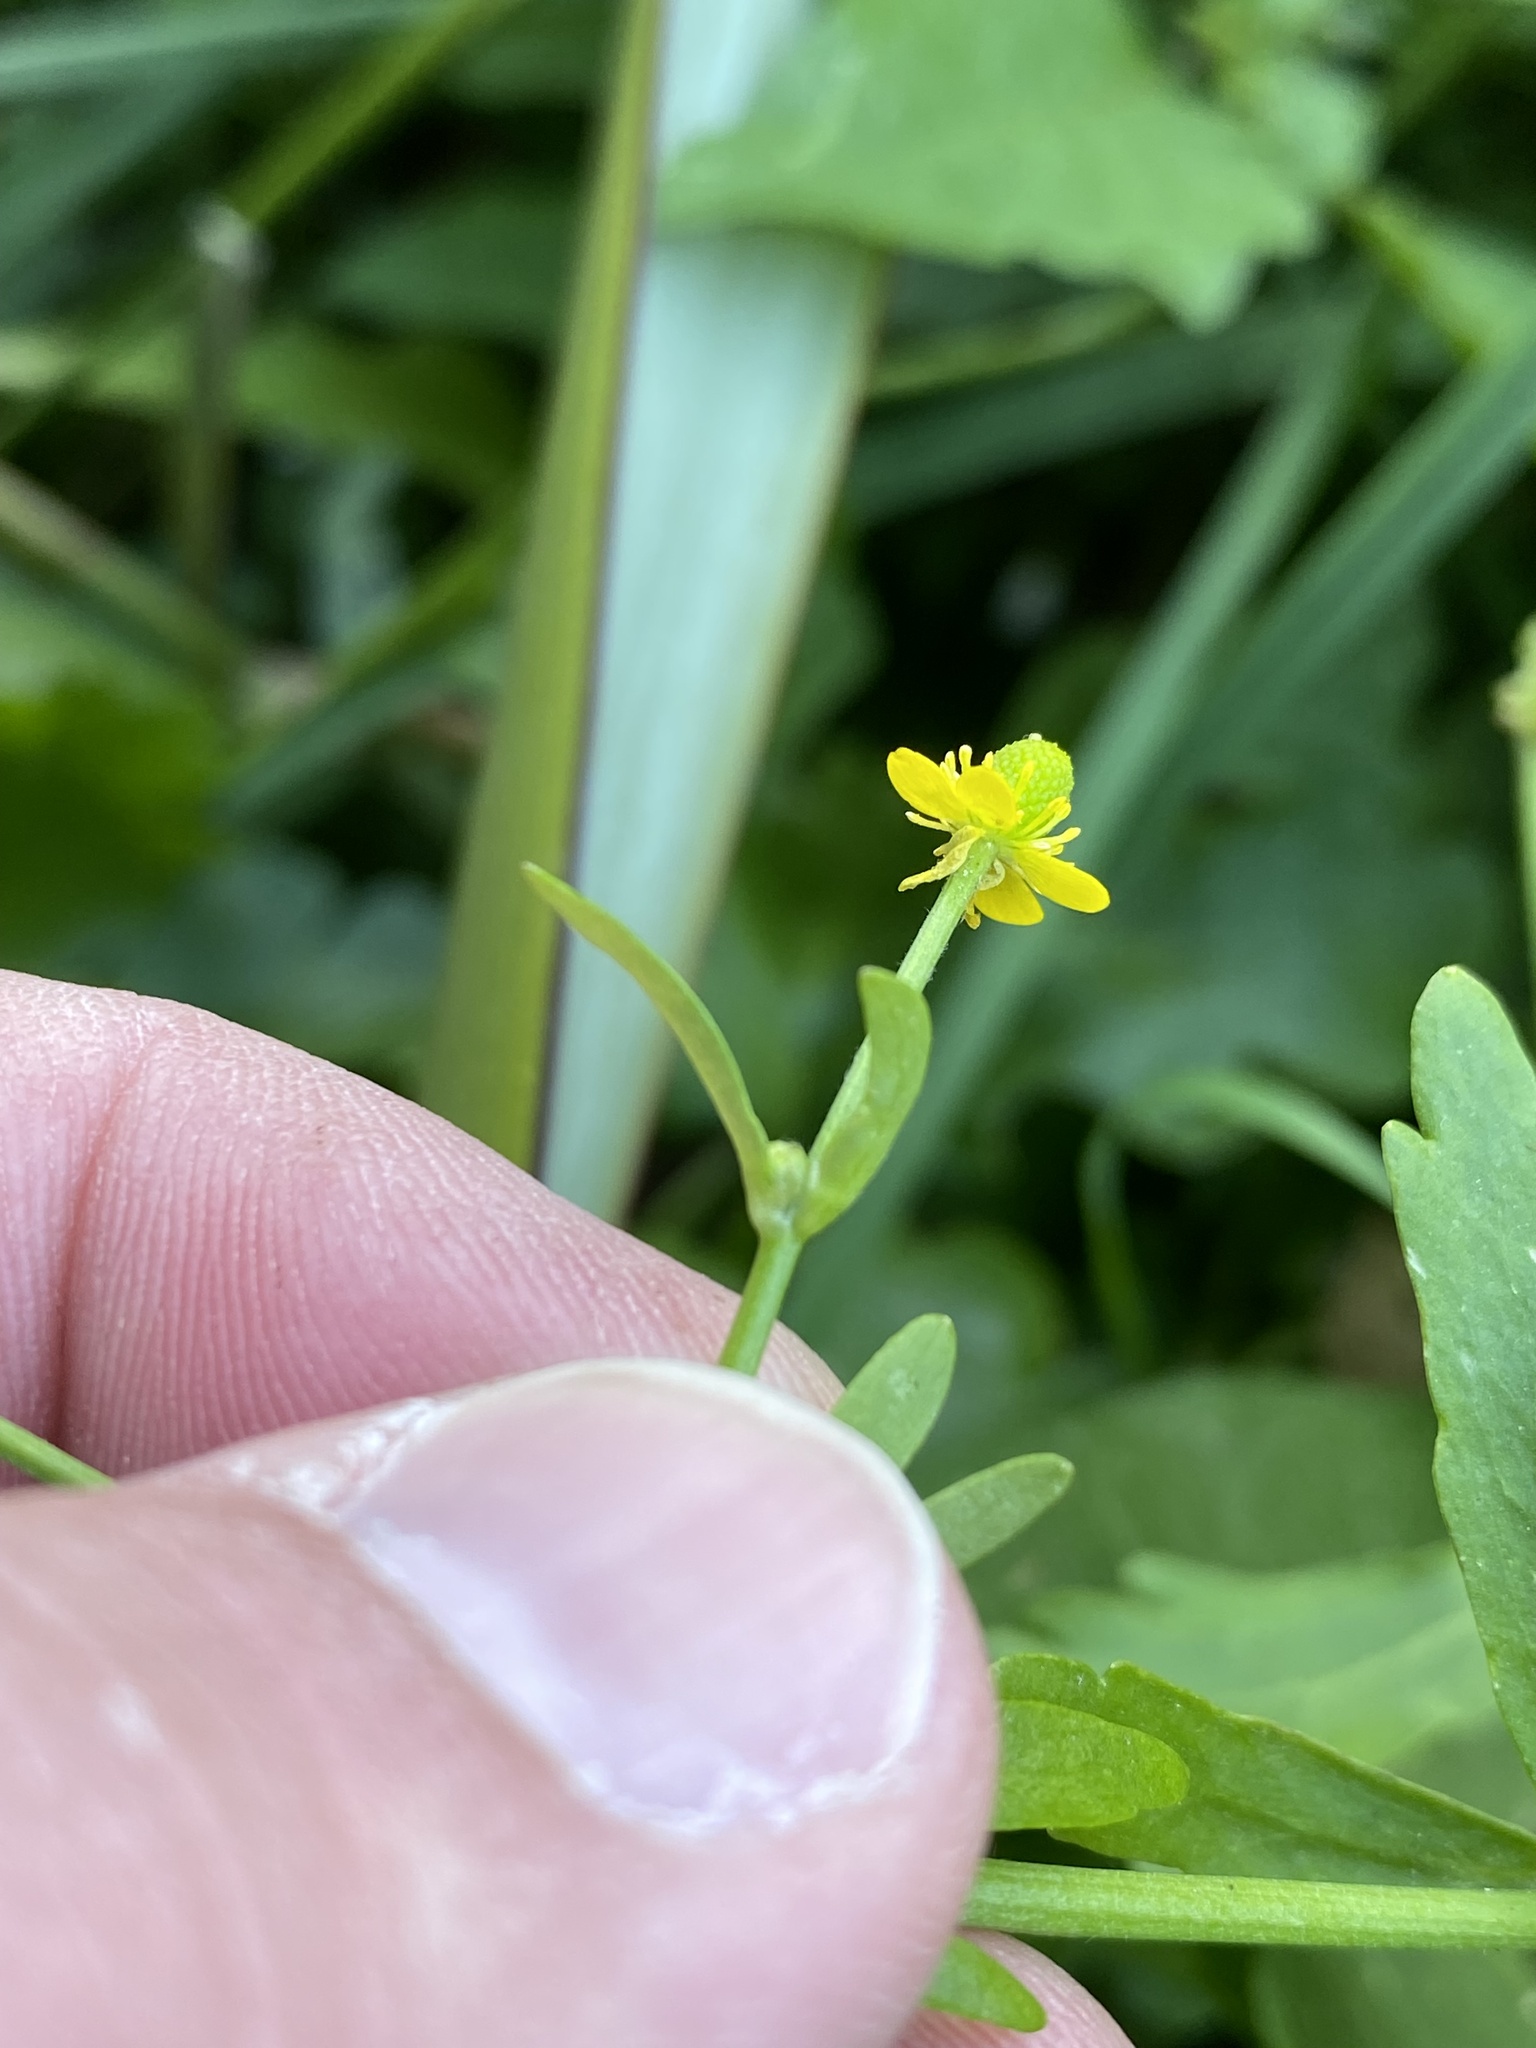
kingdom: Plantae
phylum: Tracheophyta
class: Magnoliopsida
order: Ranunculales
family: Ranunculaceae
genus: Ranunculus
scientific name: Ranunculus sceleratus
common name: Celery-leaved buttercup
